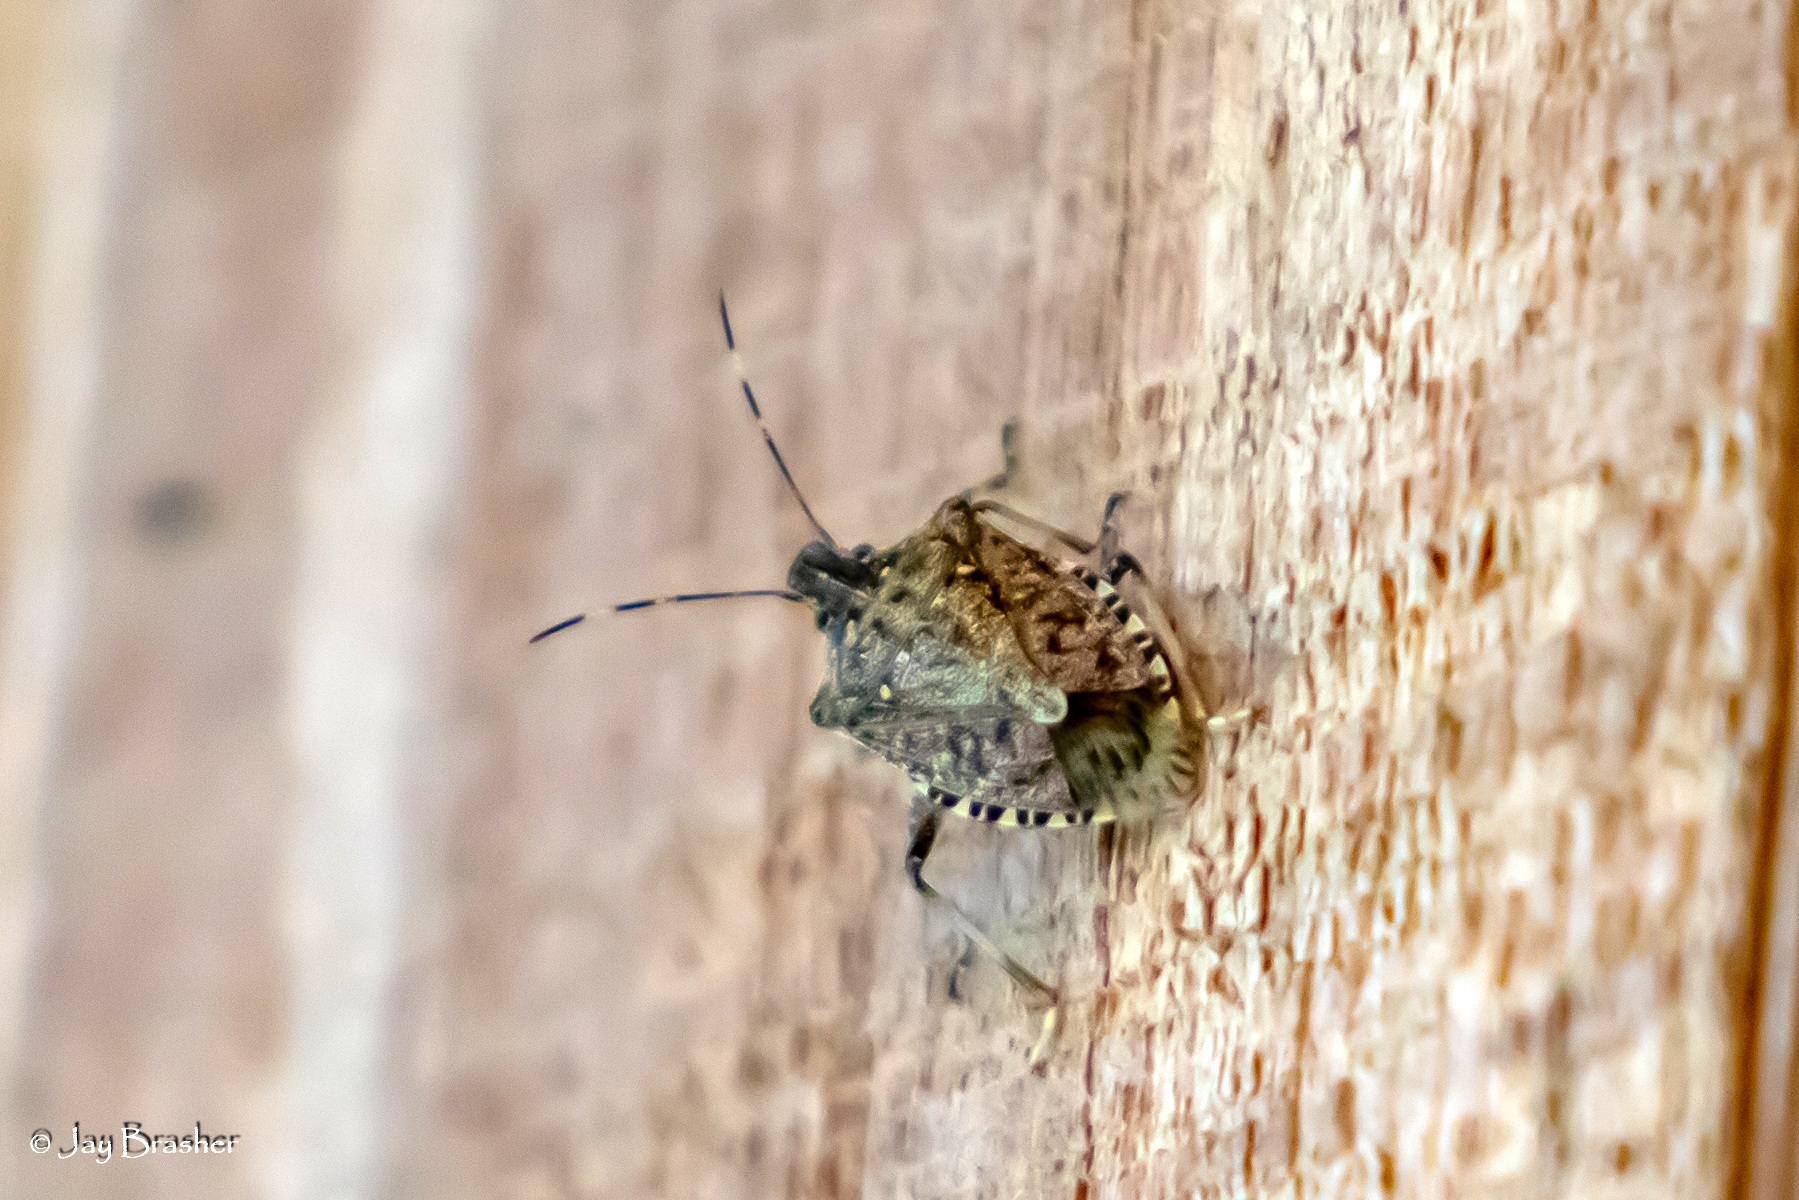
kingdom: Animalia
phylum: Arthropoda
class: Insecta
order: Hemiptera
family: Pentatomidae
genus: Halyomorpha
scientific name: Halyomorpha halys
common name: Brown marmorated stink bug
